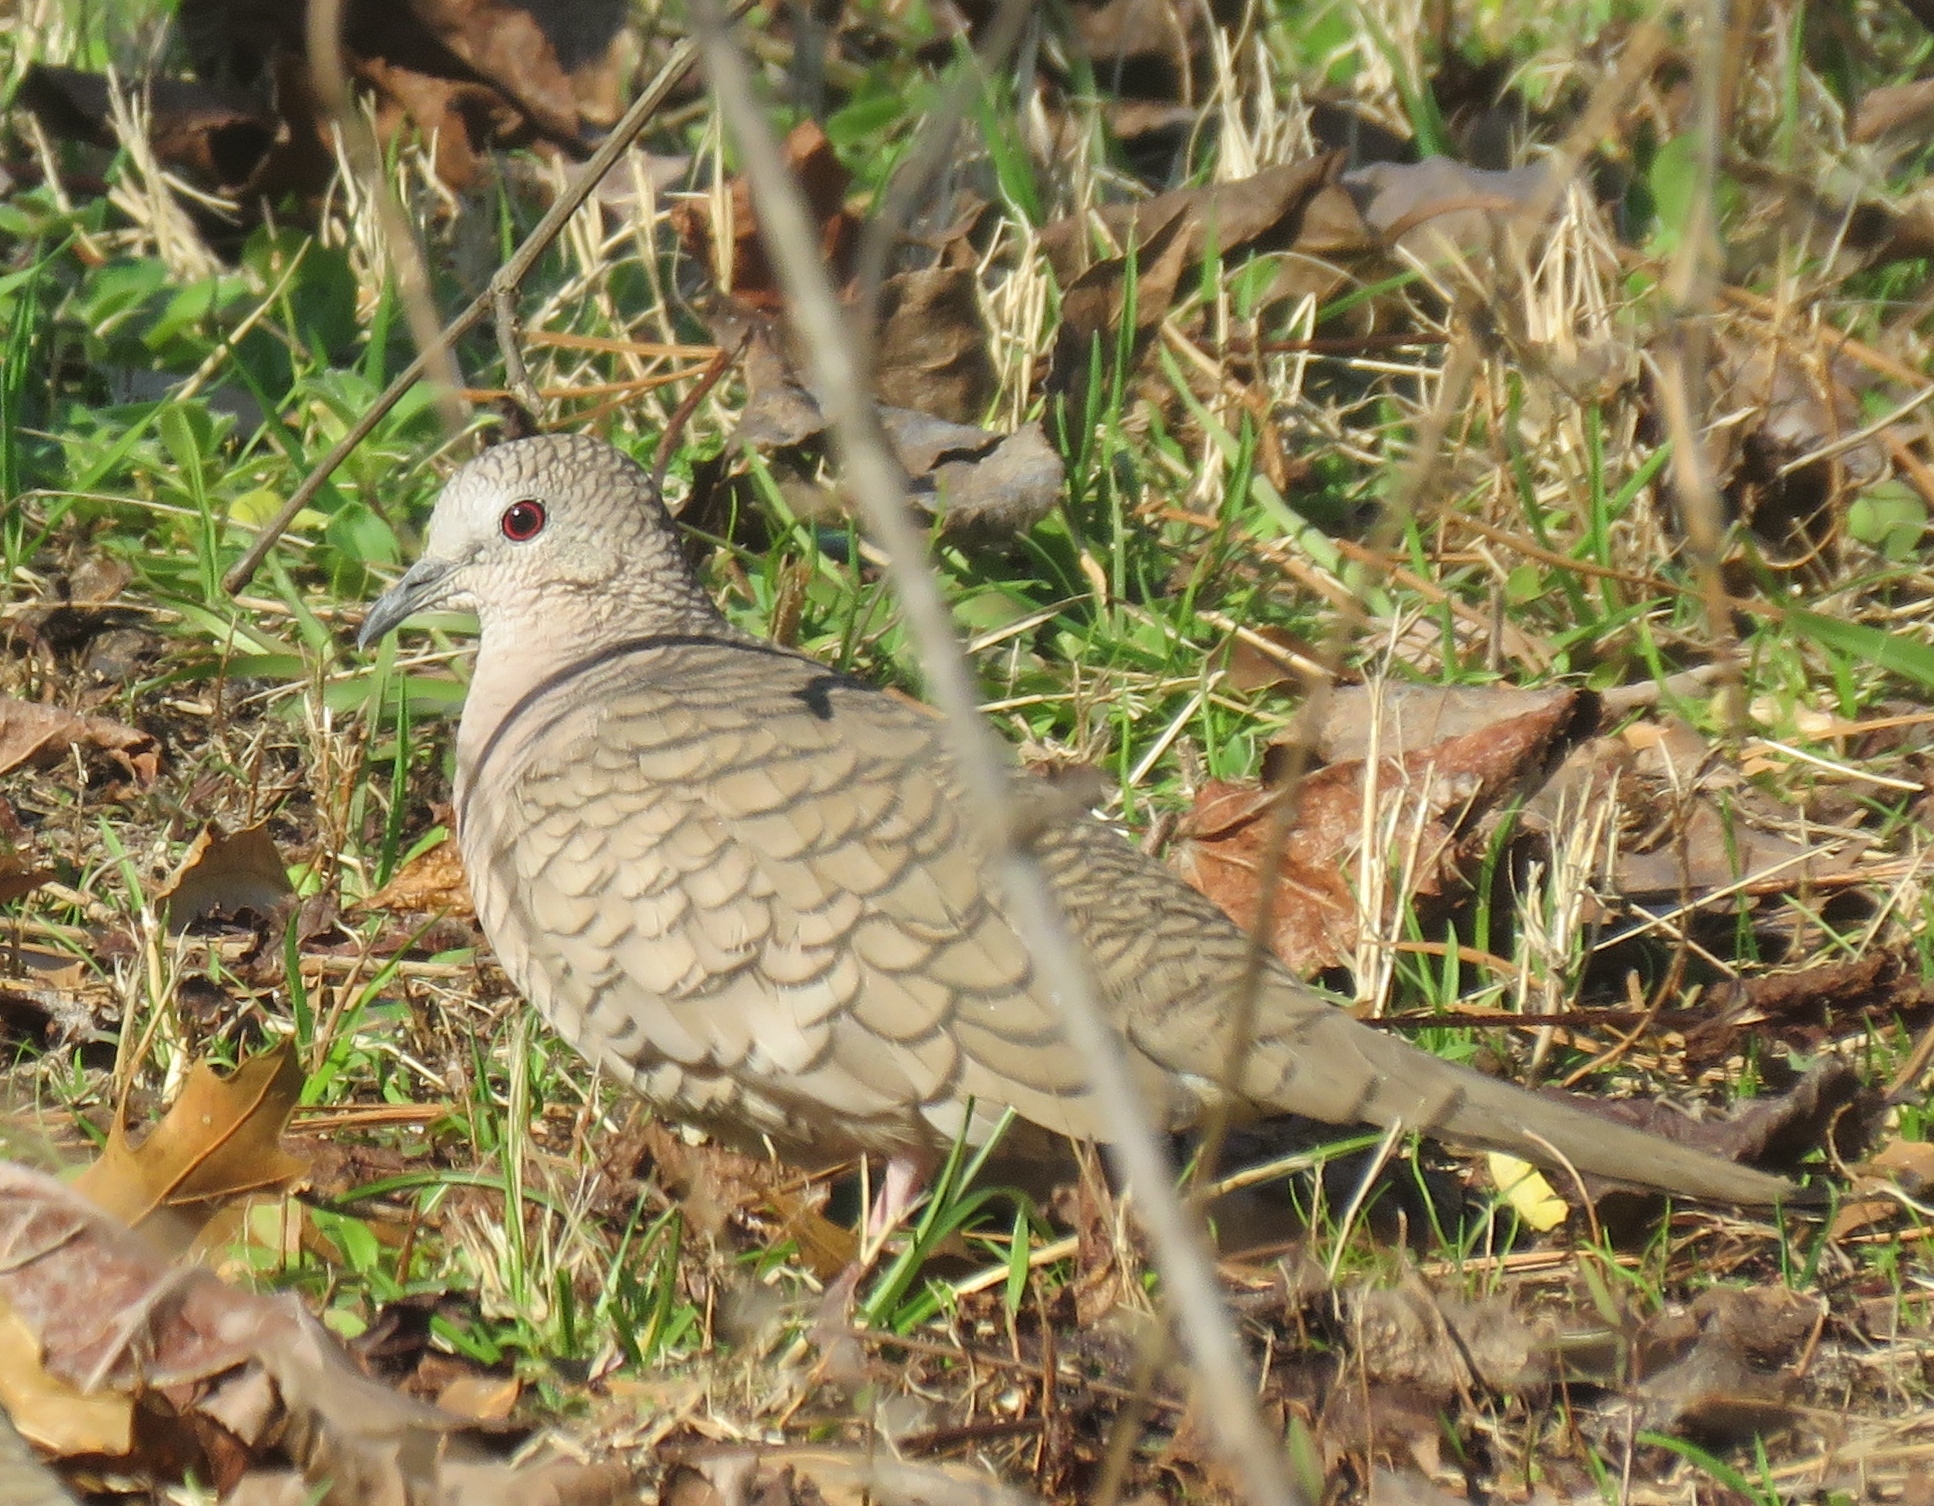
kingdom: Animalia
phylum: Chordata
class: Aves
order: Columbiformes
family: Columbidae
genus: Columbina
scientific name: Columbina inca
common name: Inca dove
